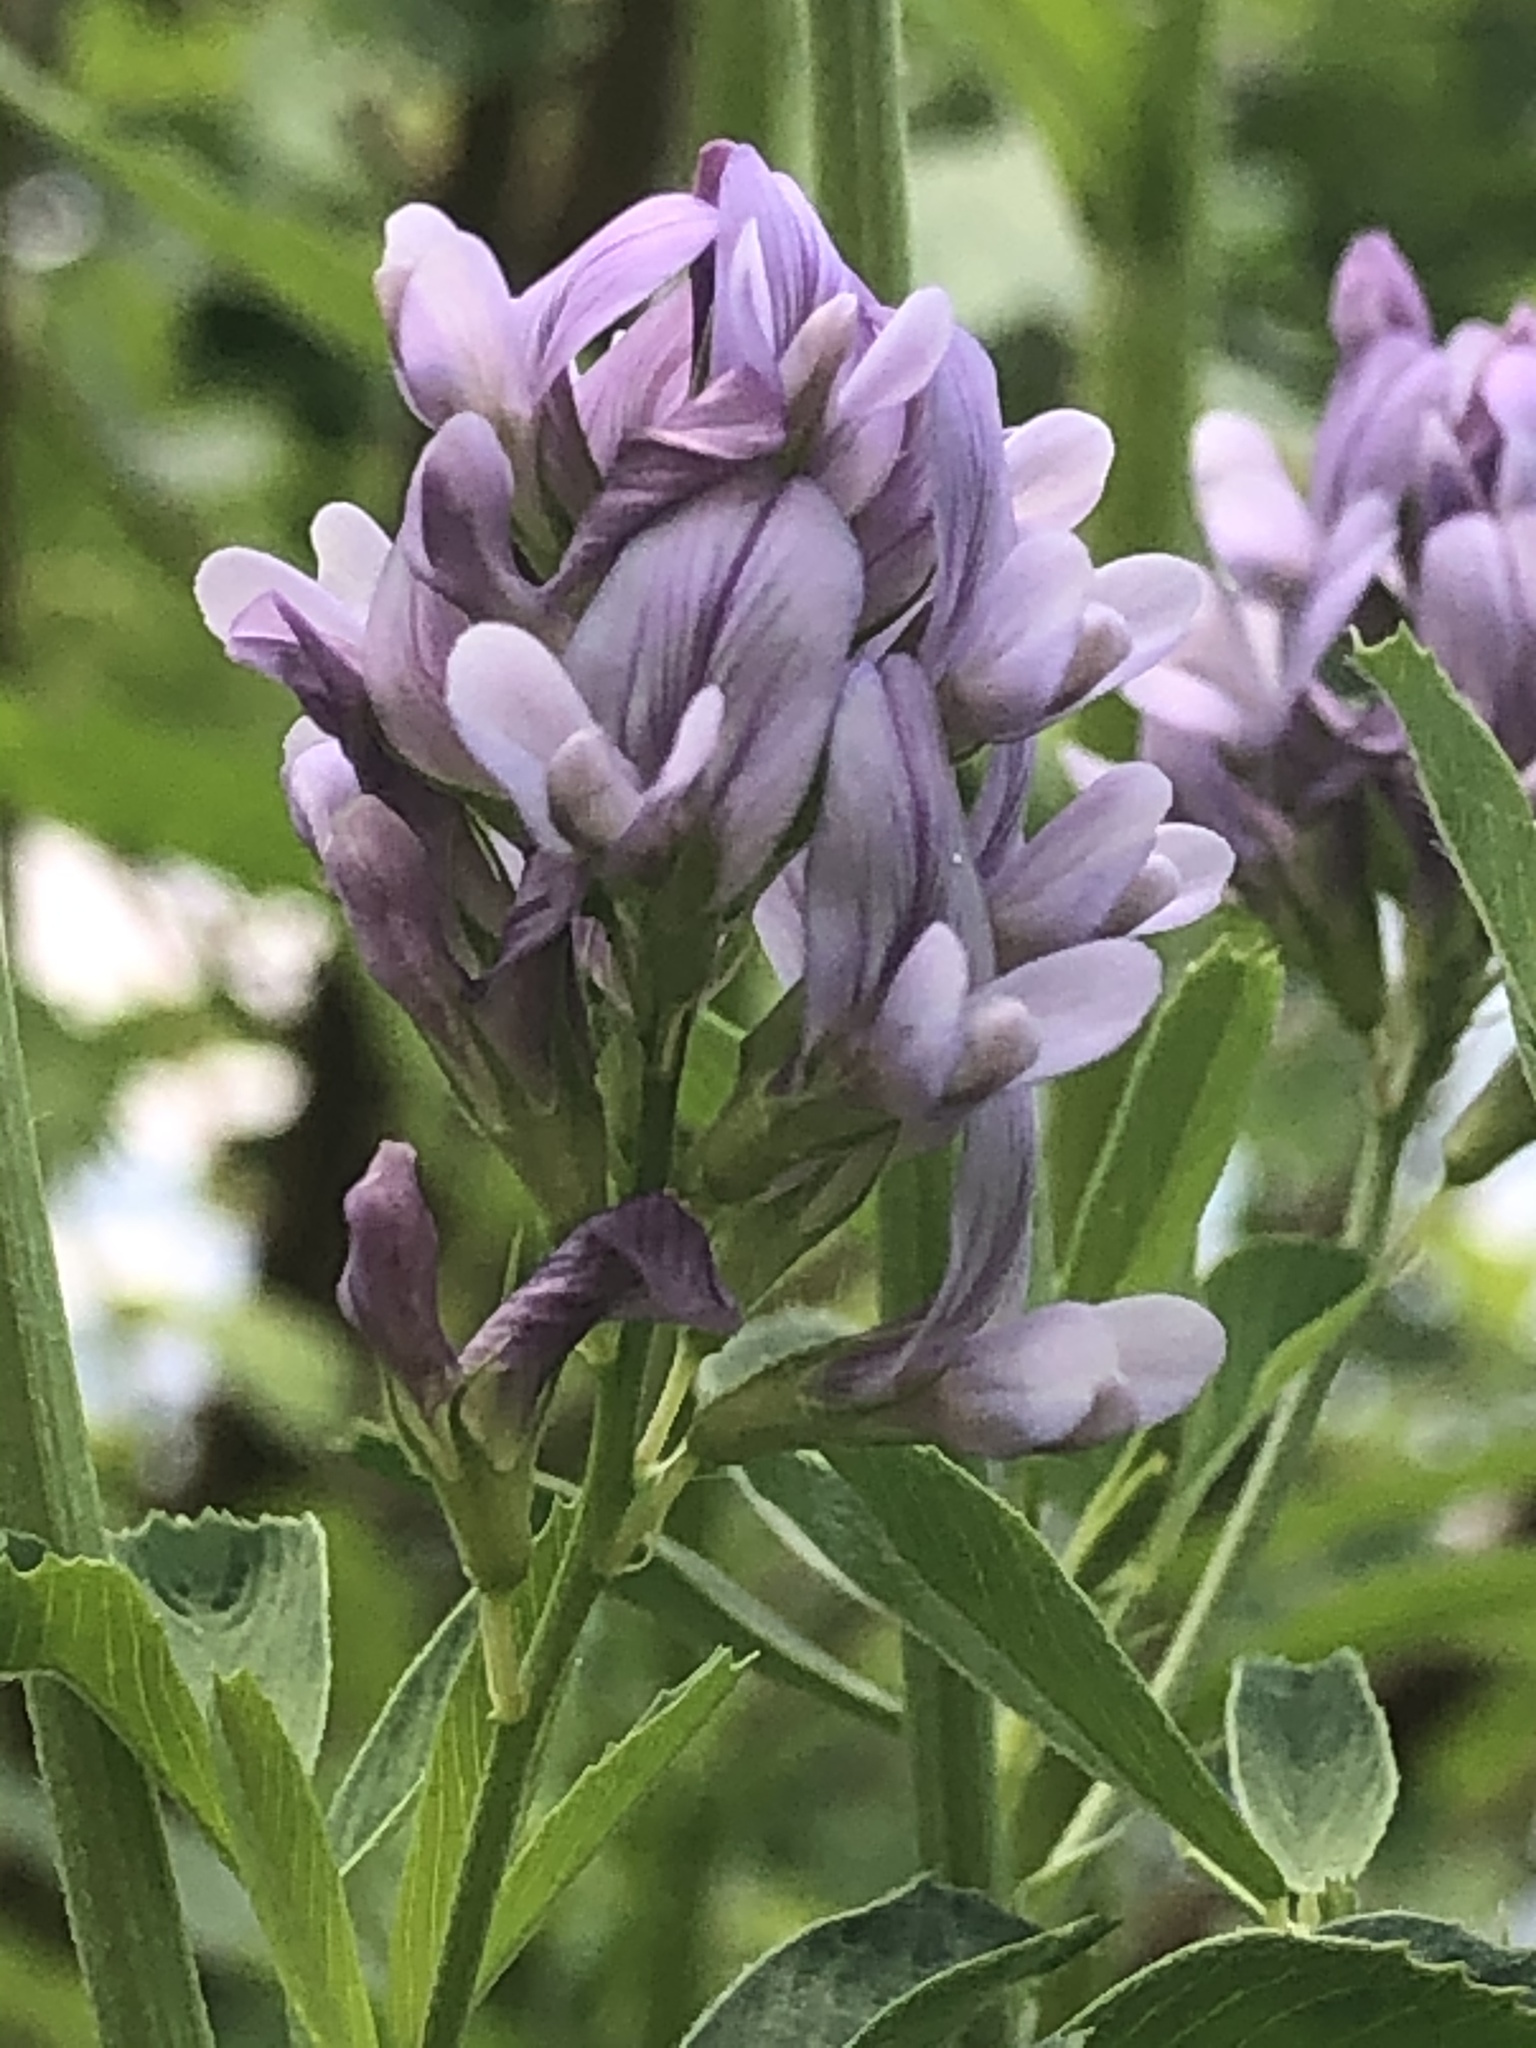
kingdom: Plantae
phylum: Tracheophyta
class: Magnoliopsida
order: Fabales
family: Fabaceae
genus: Medicago
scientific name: Medicago sativa
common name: Alfalfa
